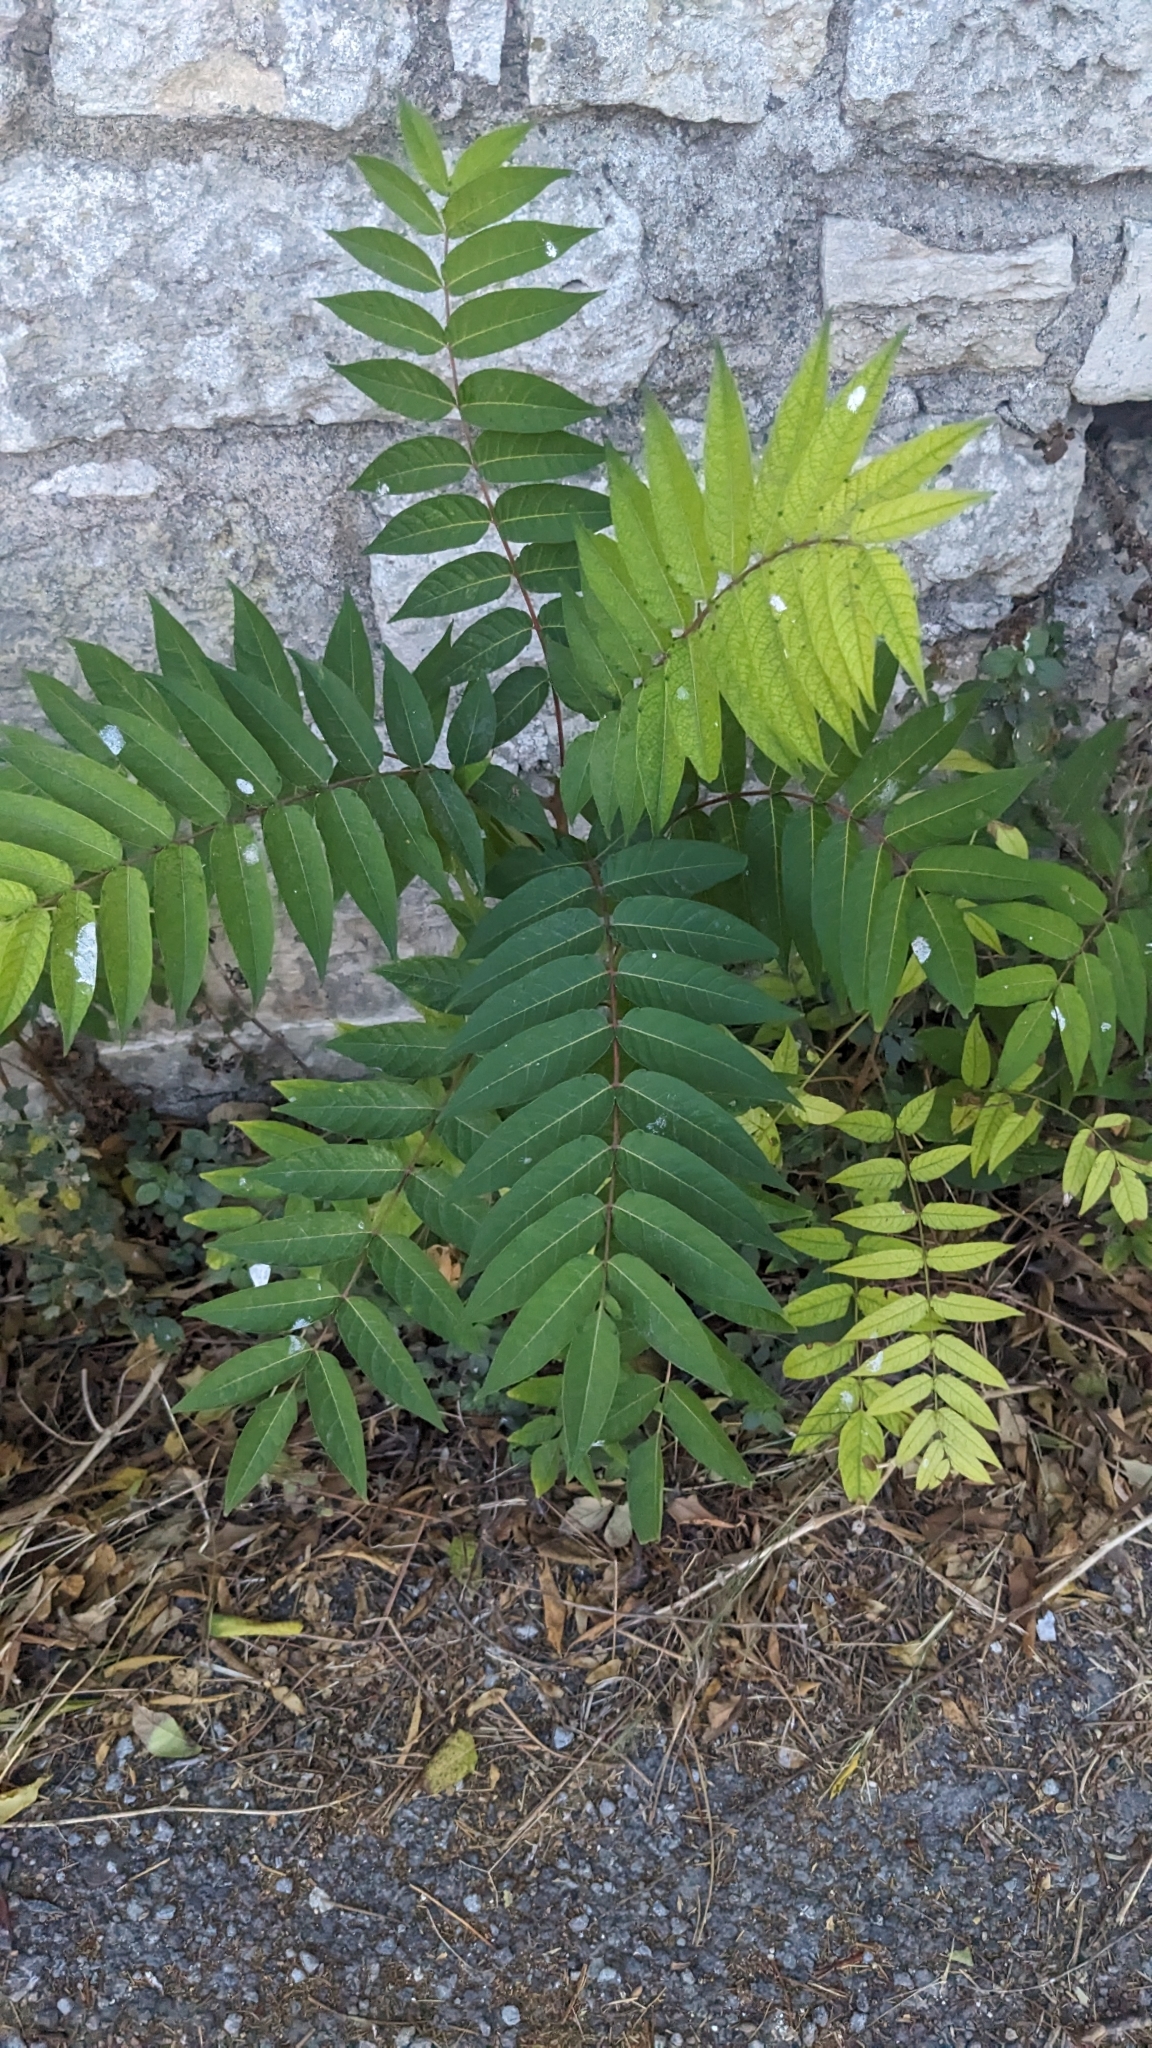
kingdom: Plantae
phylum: Tracheophyta
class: Magnoliopsida
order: Sapindales
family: Simaroubaceae
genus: Ailanthus
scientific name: Ailanthus altissima
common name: Tree-of-heaven
